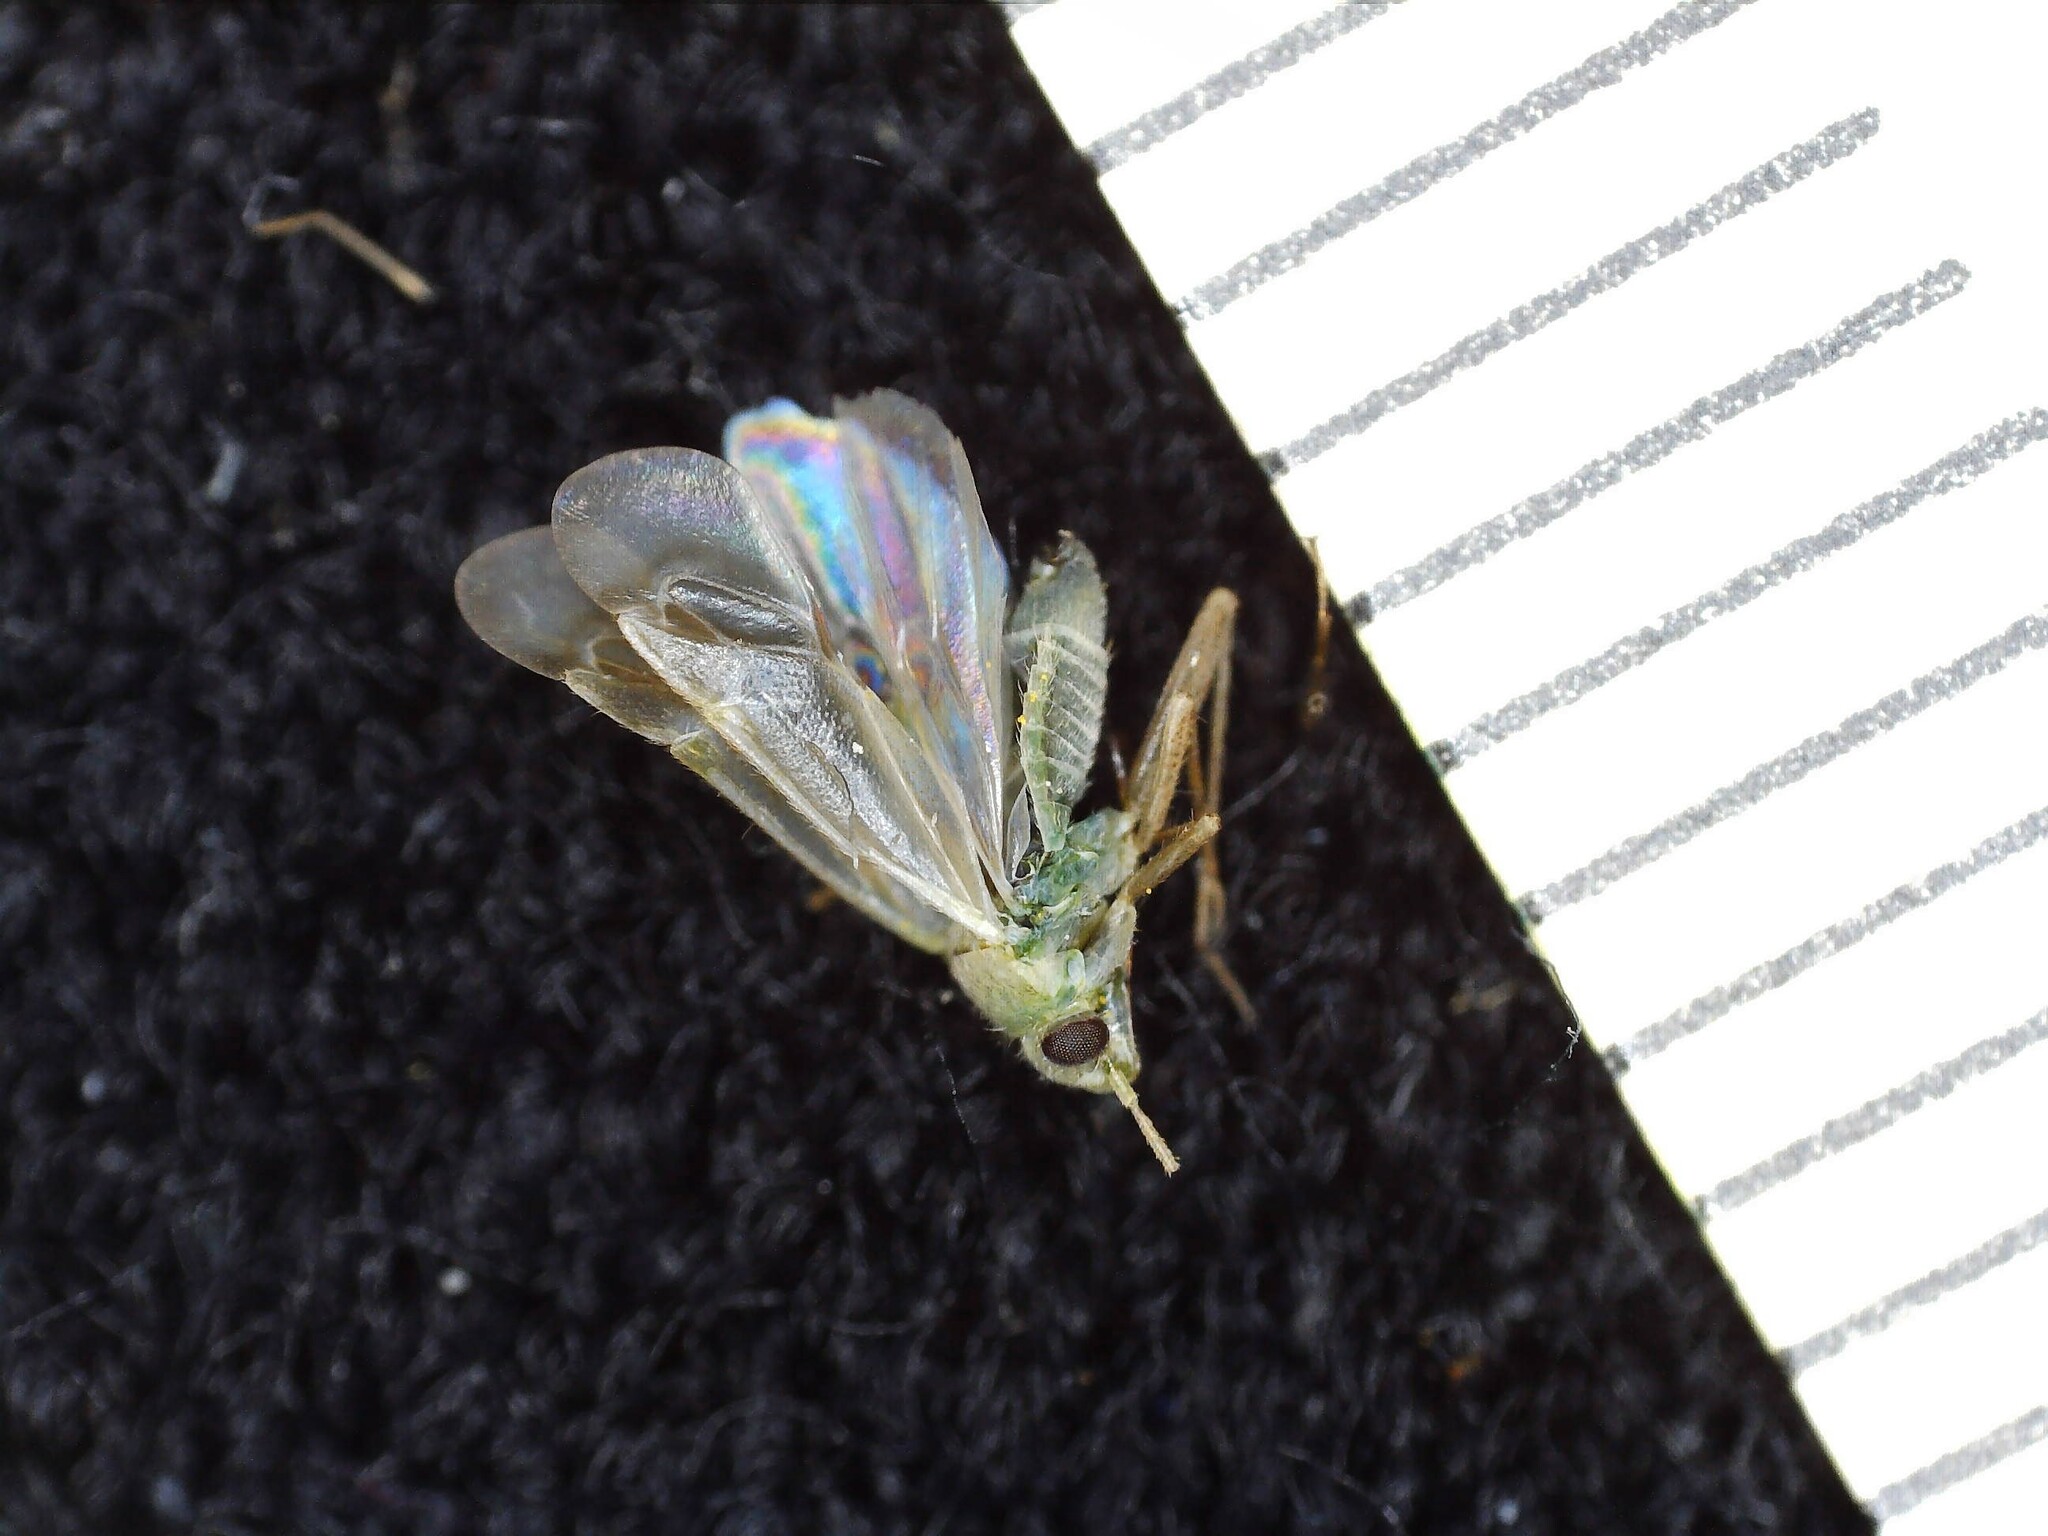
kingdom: Animalia
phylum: Arthropoda
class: Insecta
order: Hemiptera
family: Miridae
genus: Megalocoleus
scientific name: Megalocoleus molliculus
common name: Plant bug
